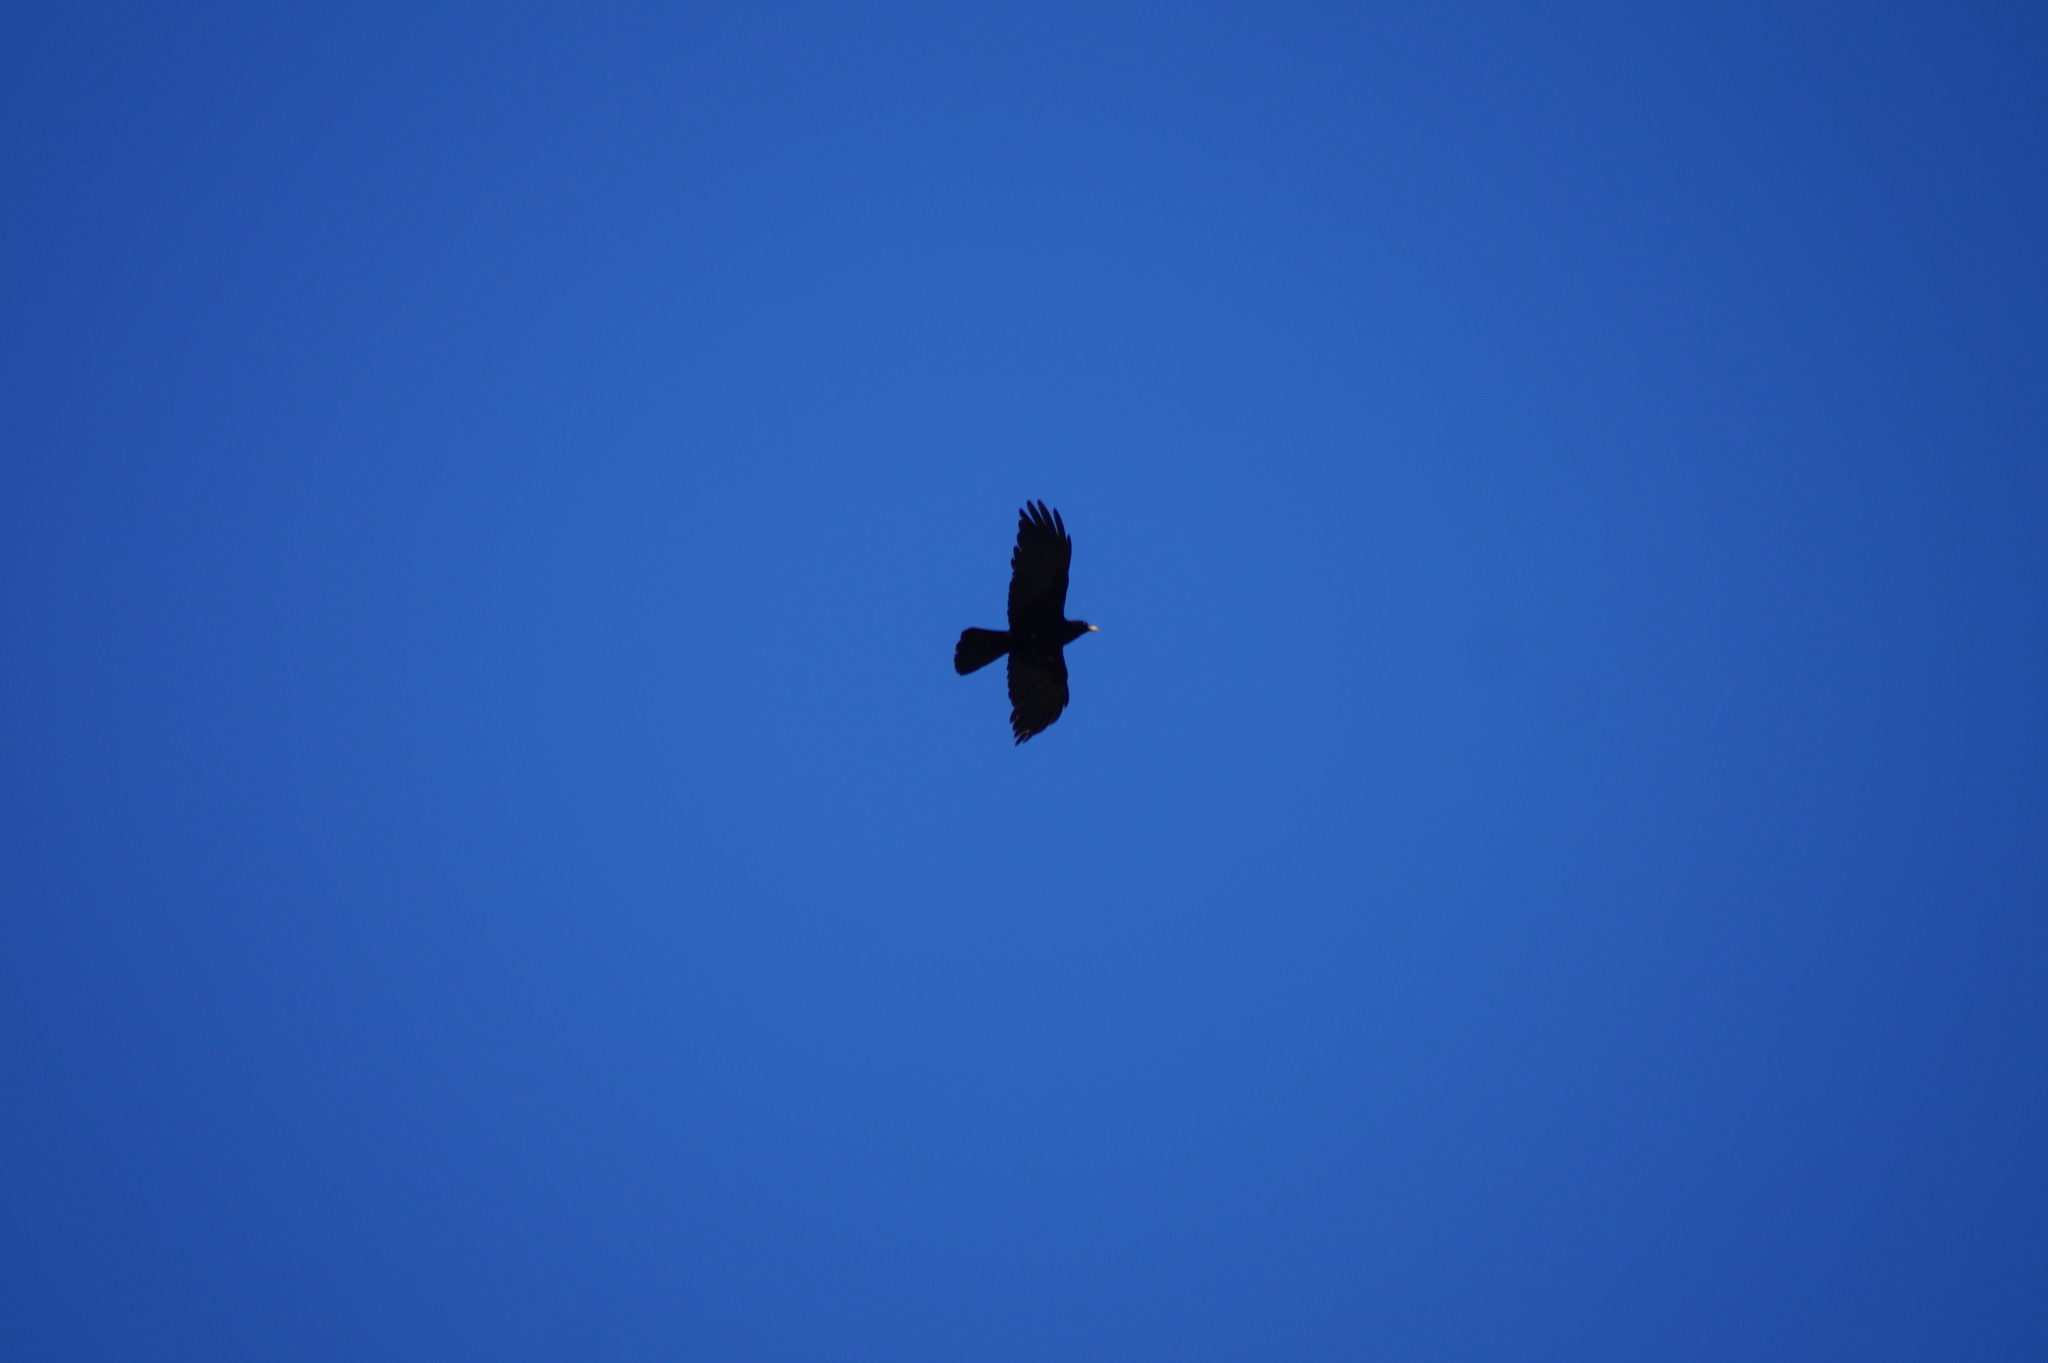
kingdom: Animalia
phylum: Chordata
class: Aves
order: Passeriformes
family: Corvidae
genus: Pyrrhocorax
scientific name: Pyrrhocorax graculus
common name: Alpine chough
